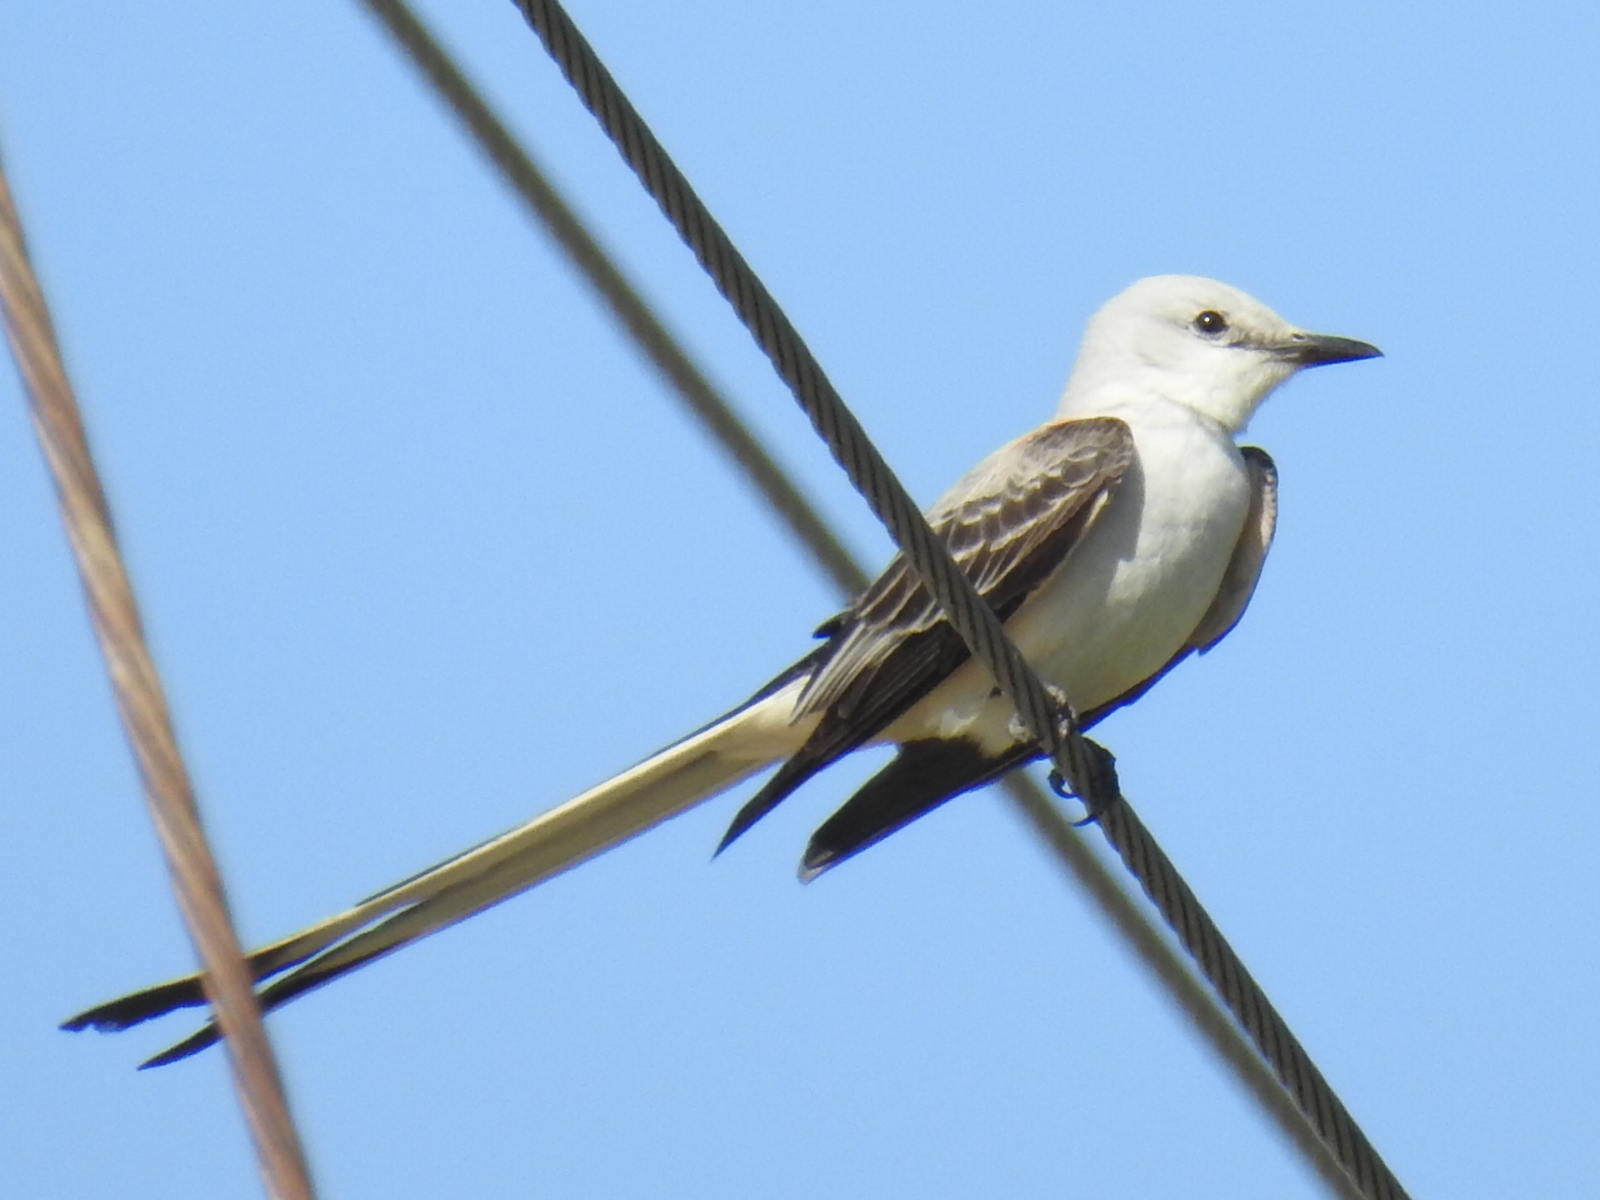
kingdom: Animalia
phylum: Chordata
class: Aves
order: Passeriformes
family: Tyrannidae
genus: Tyrannus
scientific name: Tyrannus forficatus
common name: Scissor-tailed flycatcher
